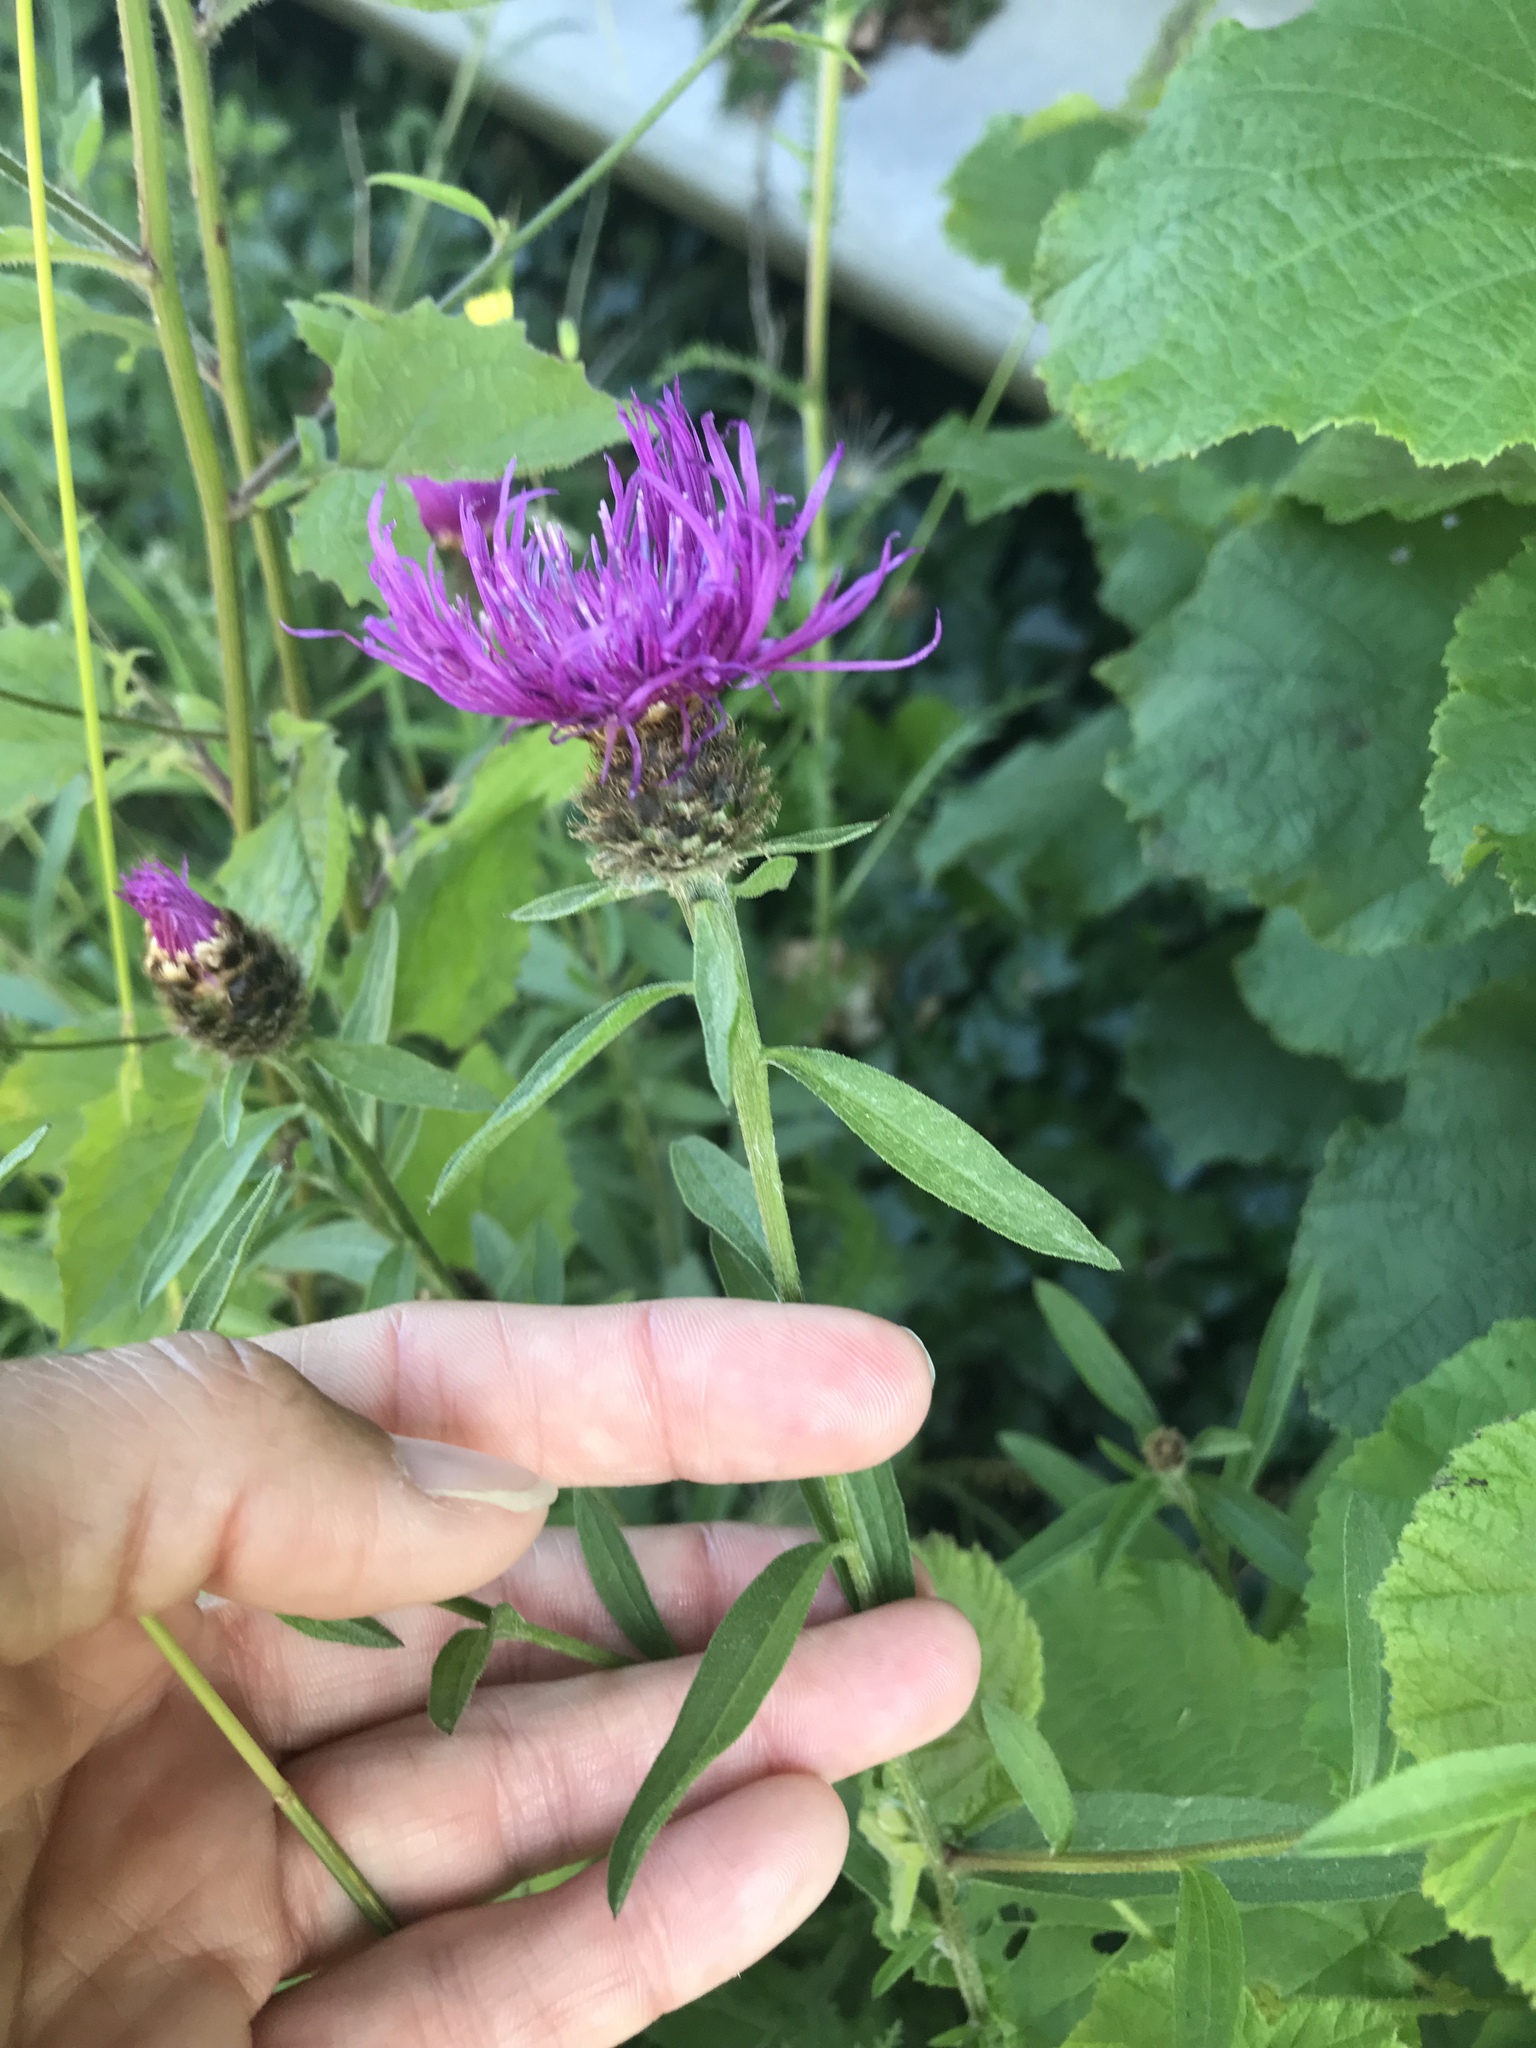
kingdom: Plantae
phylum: Tracheophyta
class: Magnoliopsida
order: Asterales
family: Asteraceae
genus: Centaurea
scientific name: Centaurea scabiosa
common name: Greater knapweed
